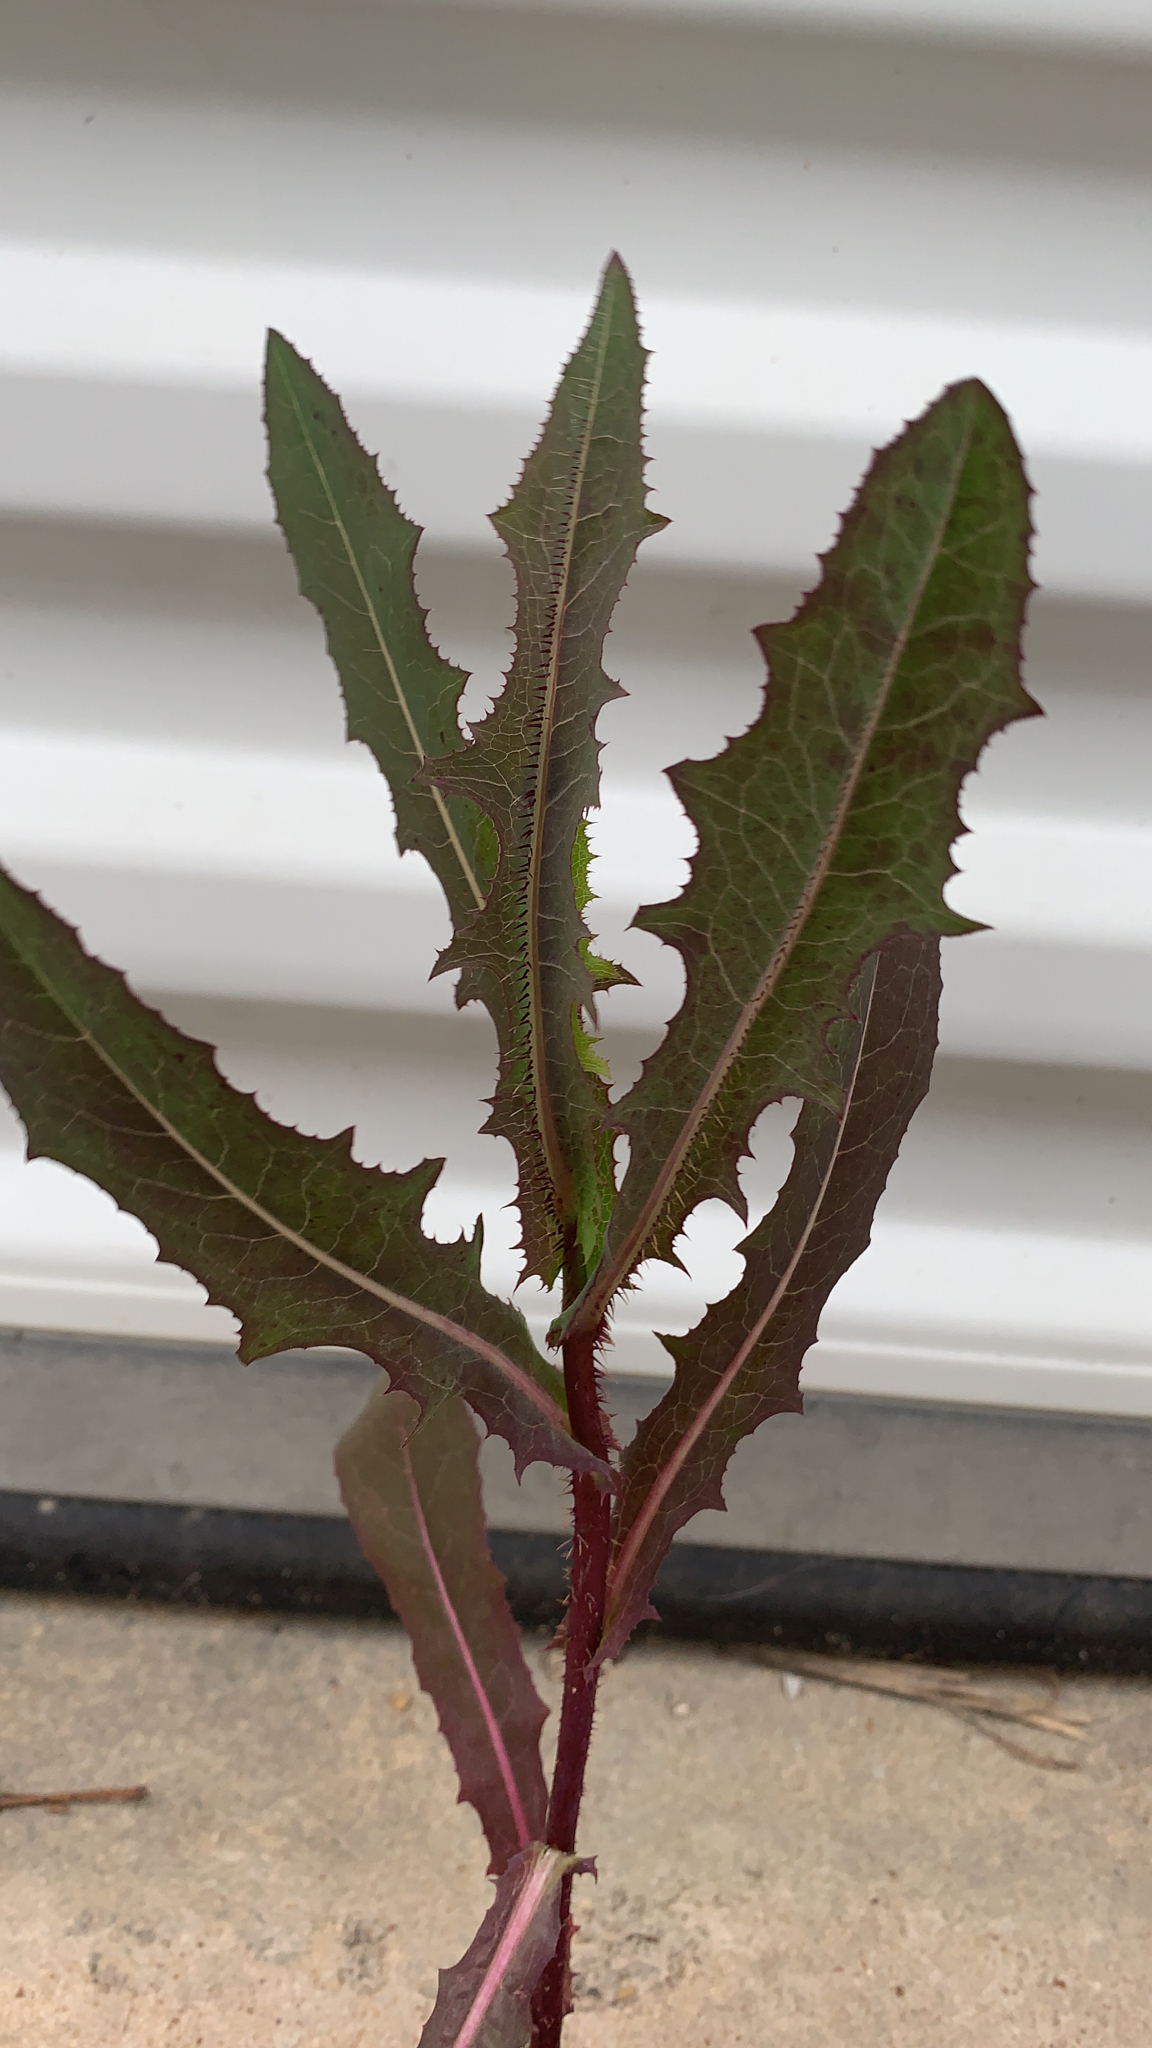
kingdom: Plantae
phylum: Tracheophyta
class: Magnoliopsida
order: Asterales
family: Asteraceae
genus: Lactuca
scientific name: Lactuca serriola
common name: Prickly lettuce
